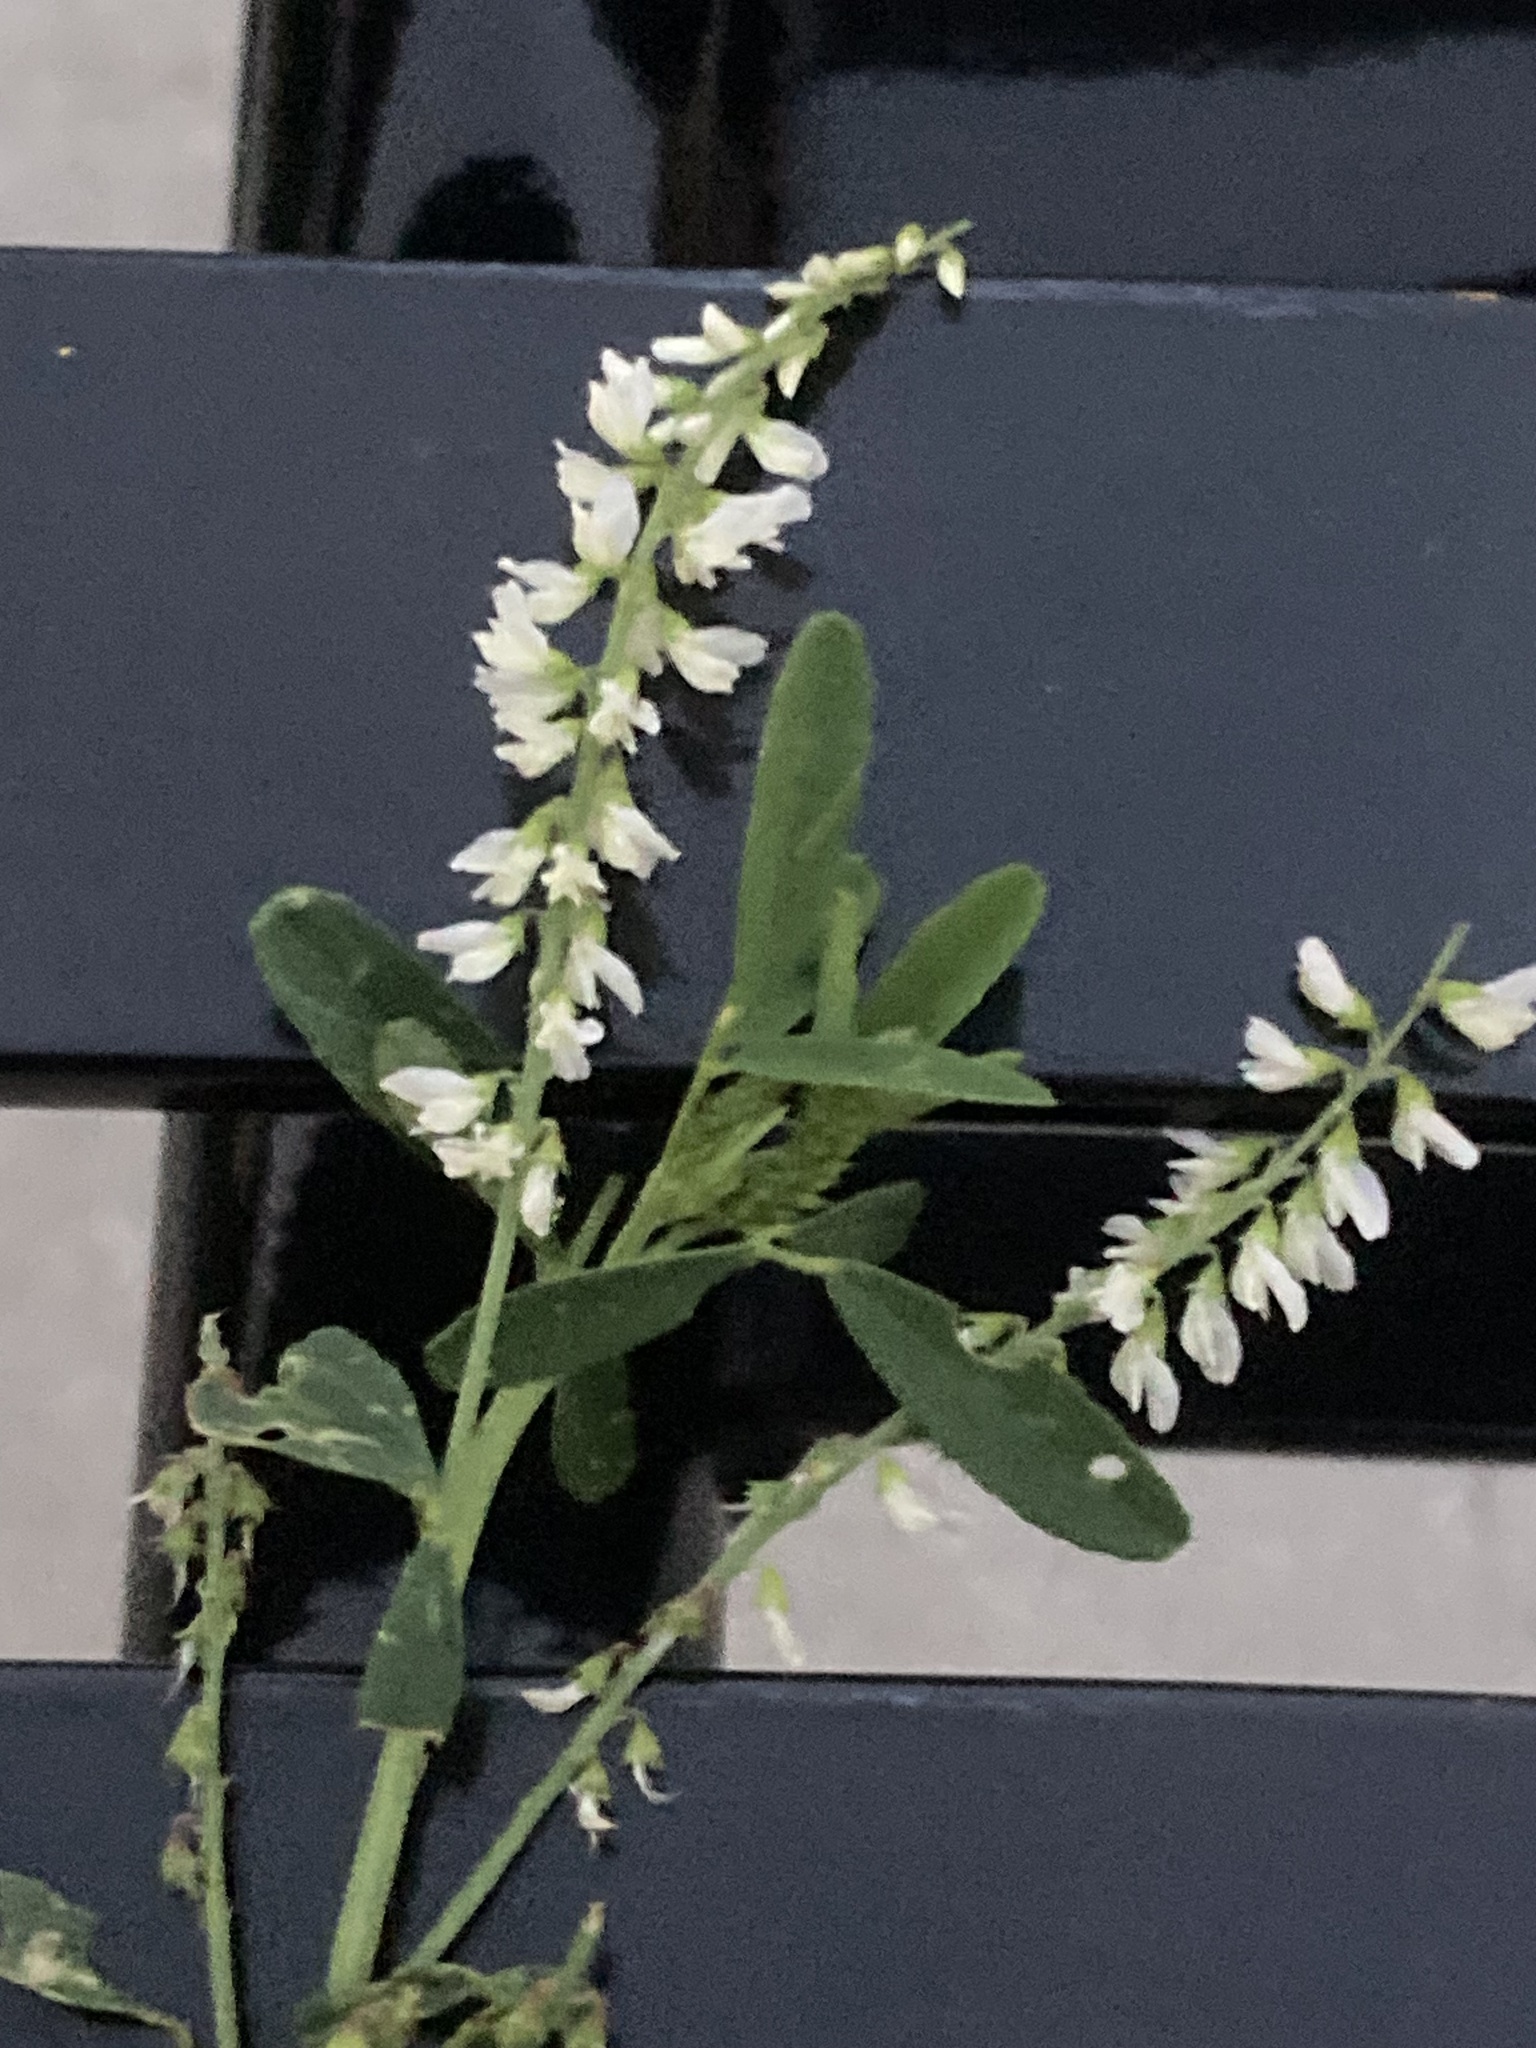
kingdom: Plantae
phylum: Tracheophyta
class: Magnoliopsida
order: Fabales
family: Fabaceae
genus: Melilotus
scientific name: Melilotus albus
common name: White melilot
